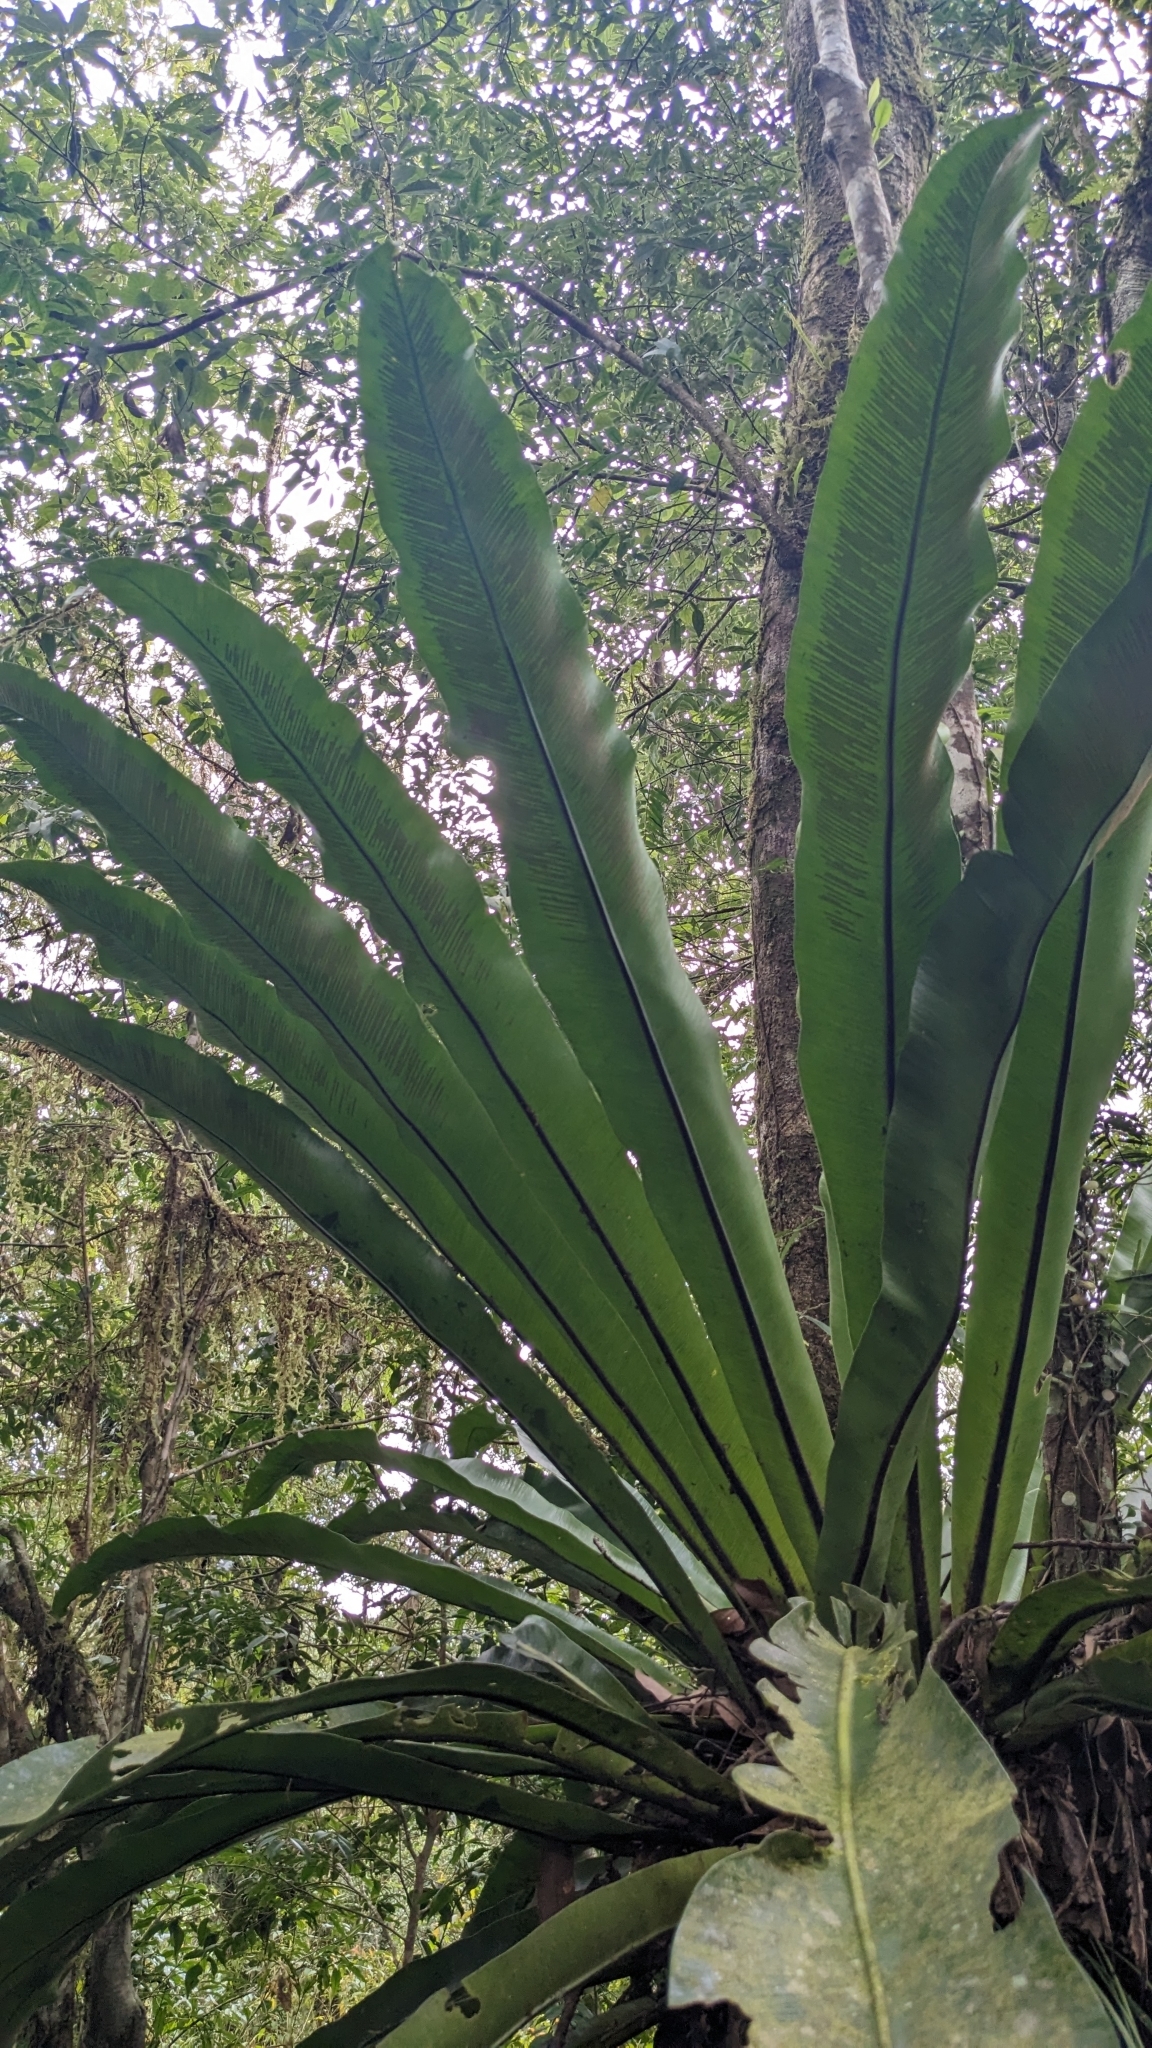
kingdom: Plantae
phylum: Tracheophyta
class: Polypodiopsida
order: Polypodiales
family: Aspleniaceae
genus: Asplenium
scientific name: Asplenium antiquum
